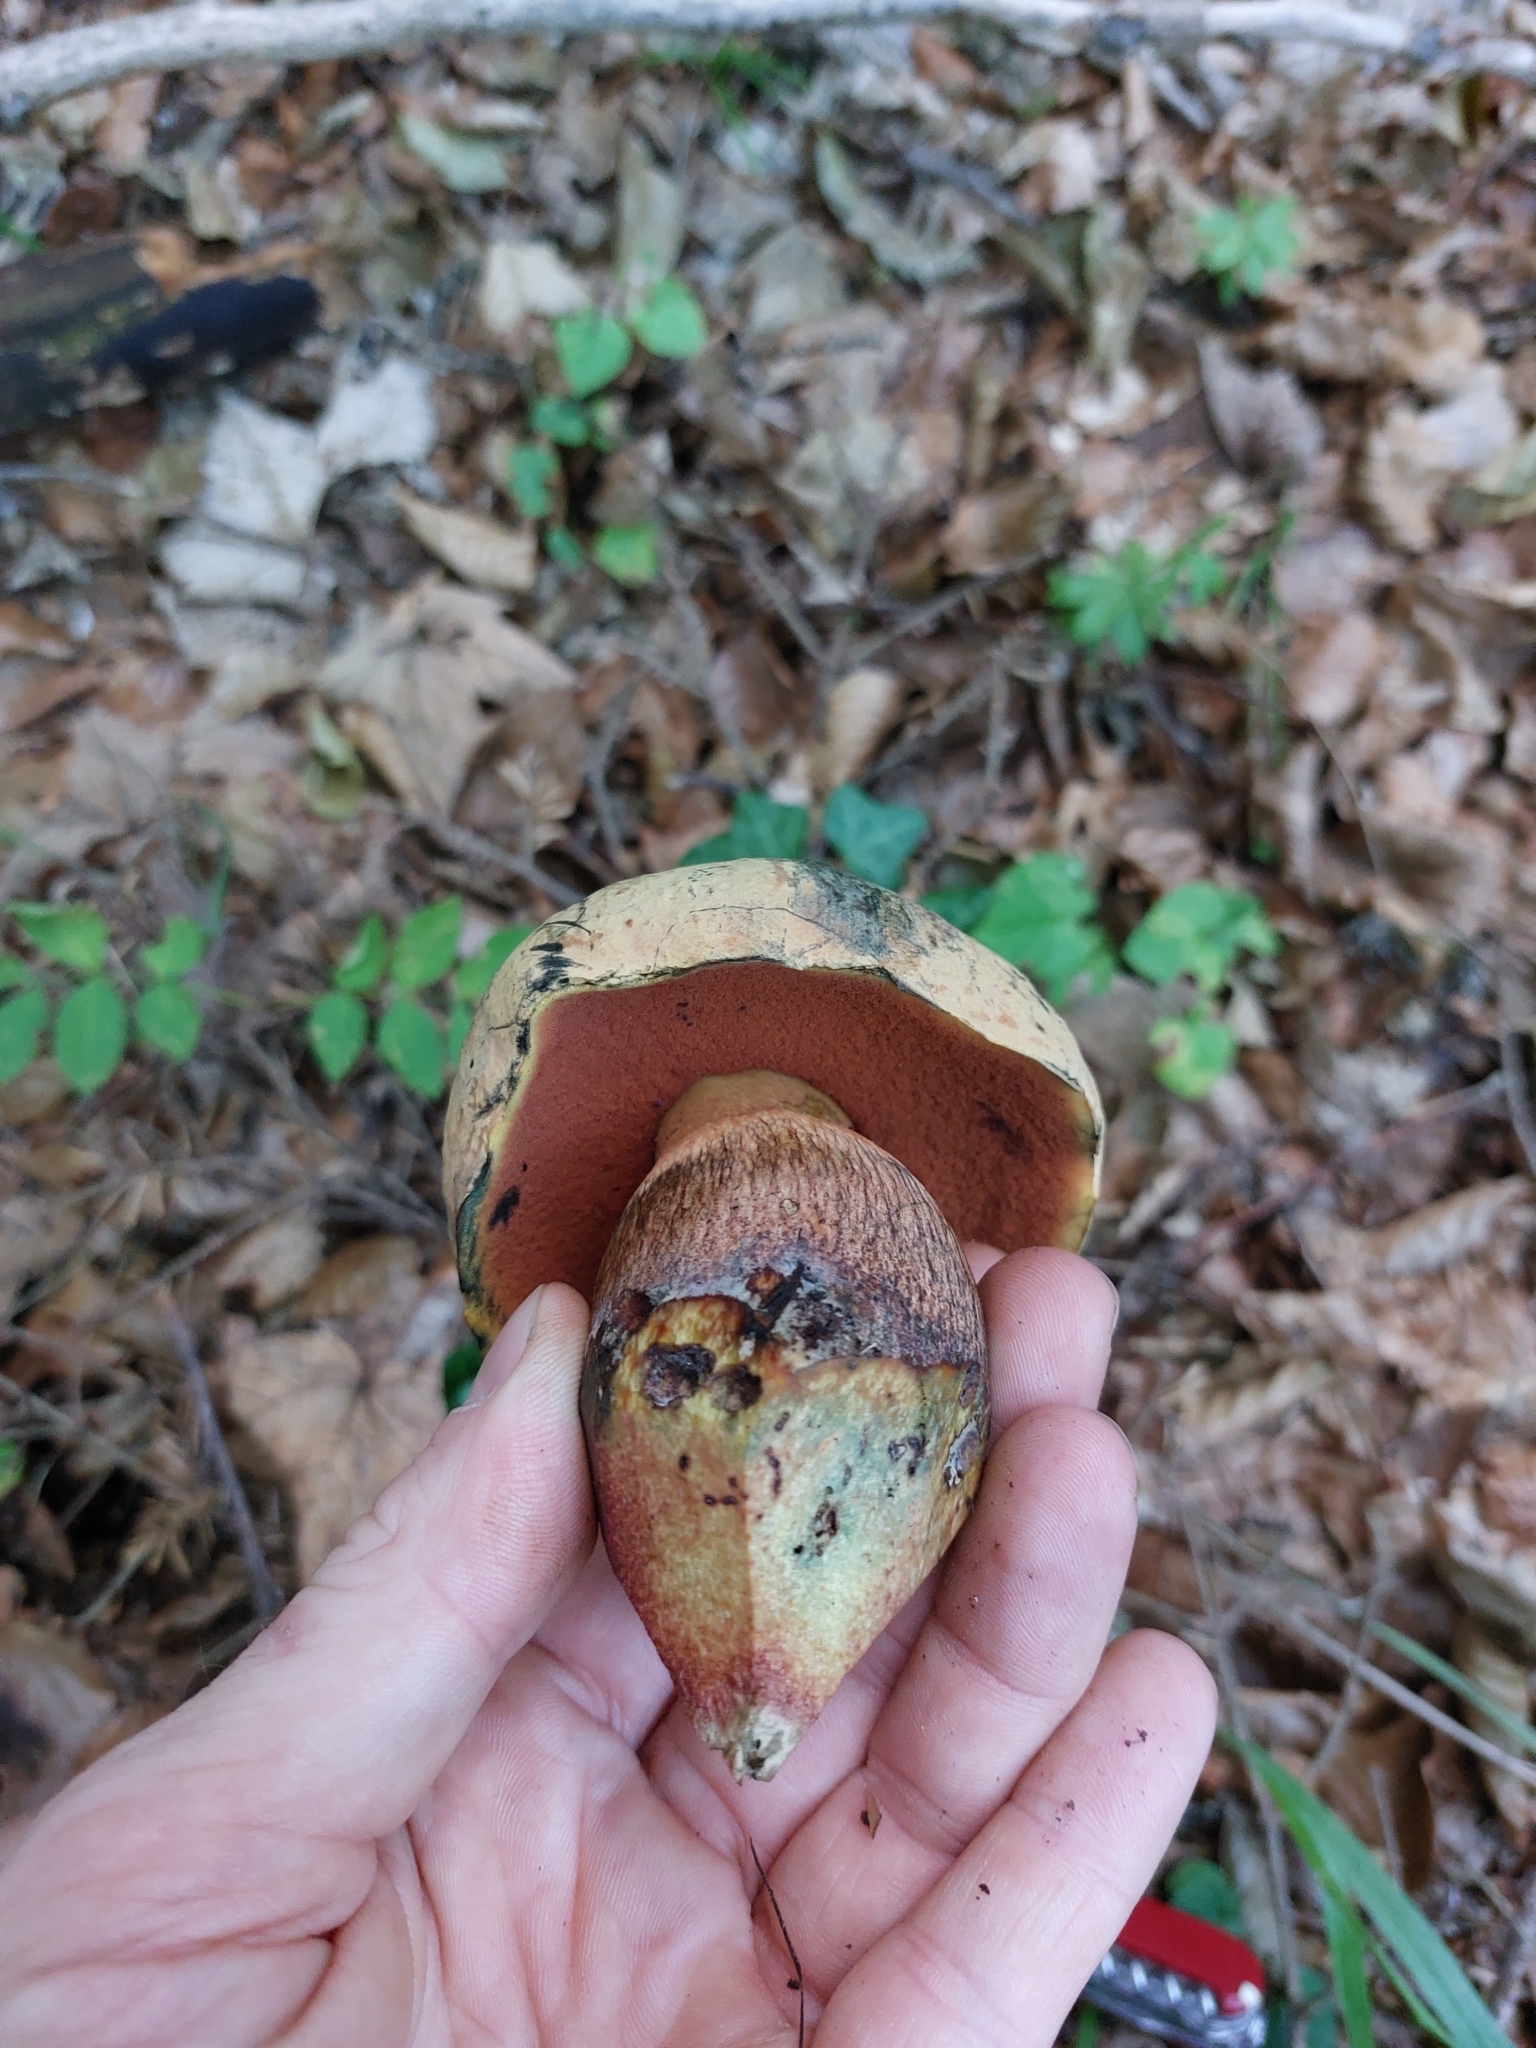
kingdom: Fungi
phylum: Basidiomycota
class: Agaricomycetes
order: Boletales
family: Boletaceae
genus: Suillellus
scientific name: Suillellus luridus
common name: Lurid bolete
